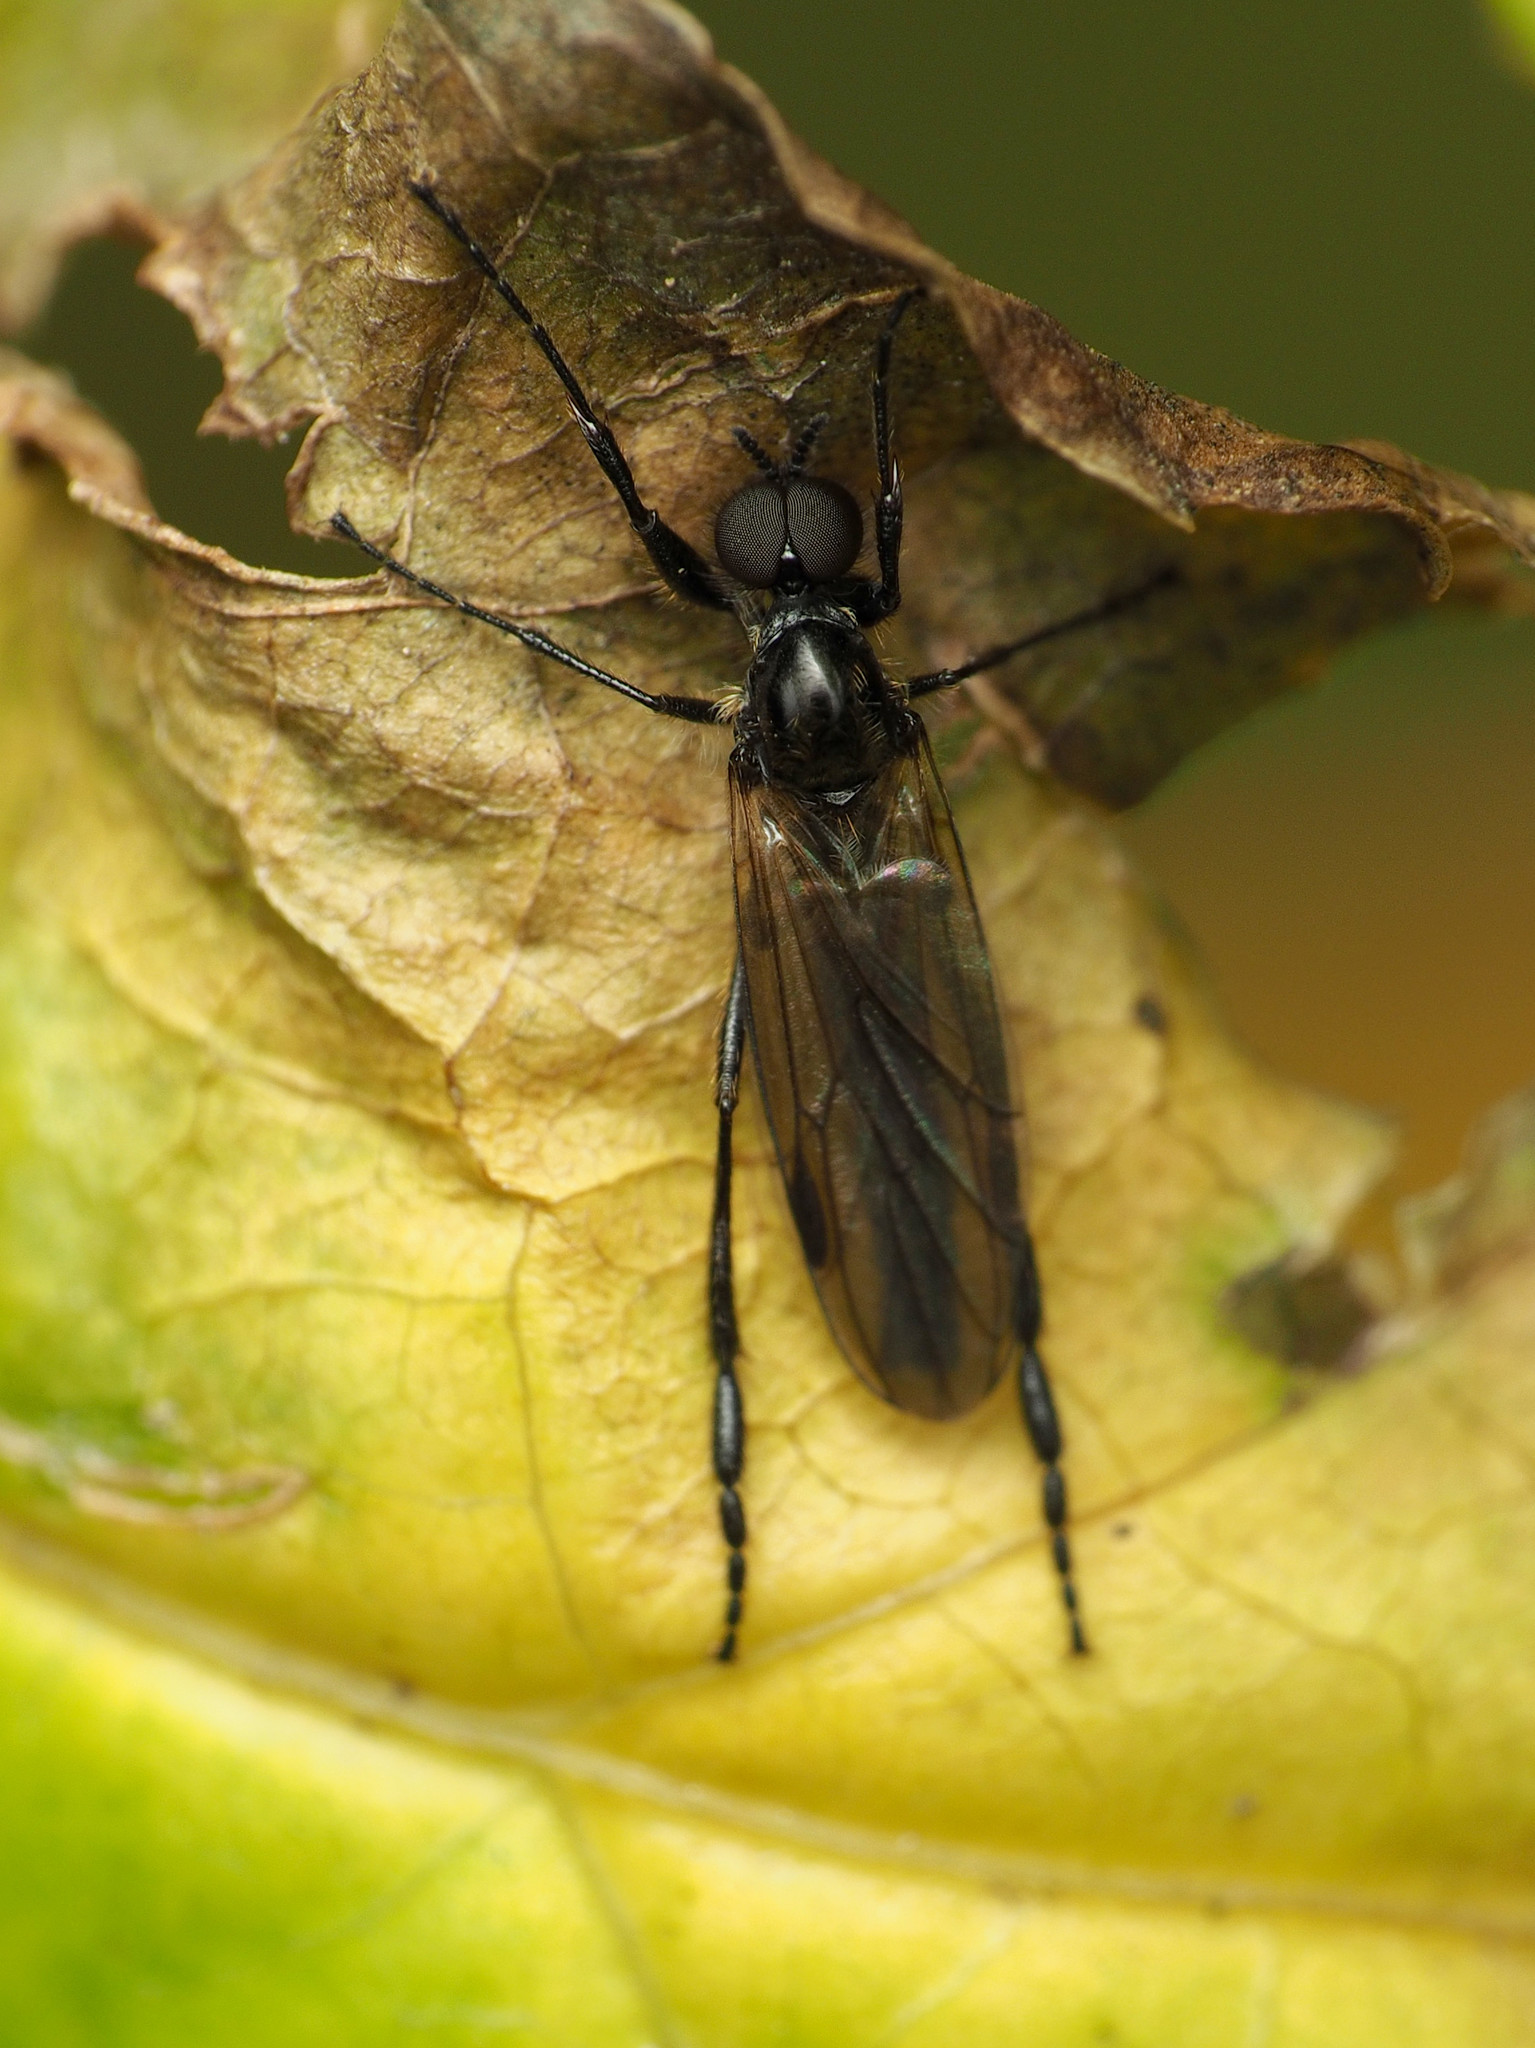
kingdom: Animalia
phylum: Arthropoda
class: Insecta
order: Diptera
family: Bibionidae
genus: Bibio
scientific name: Bibio longipes
